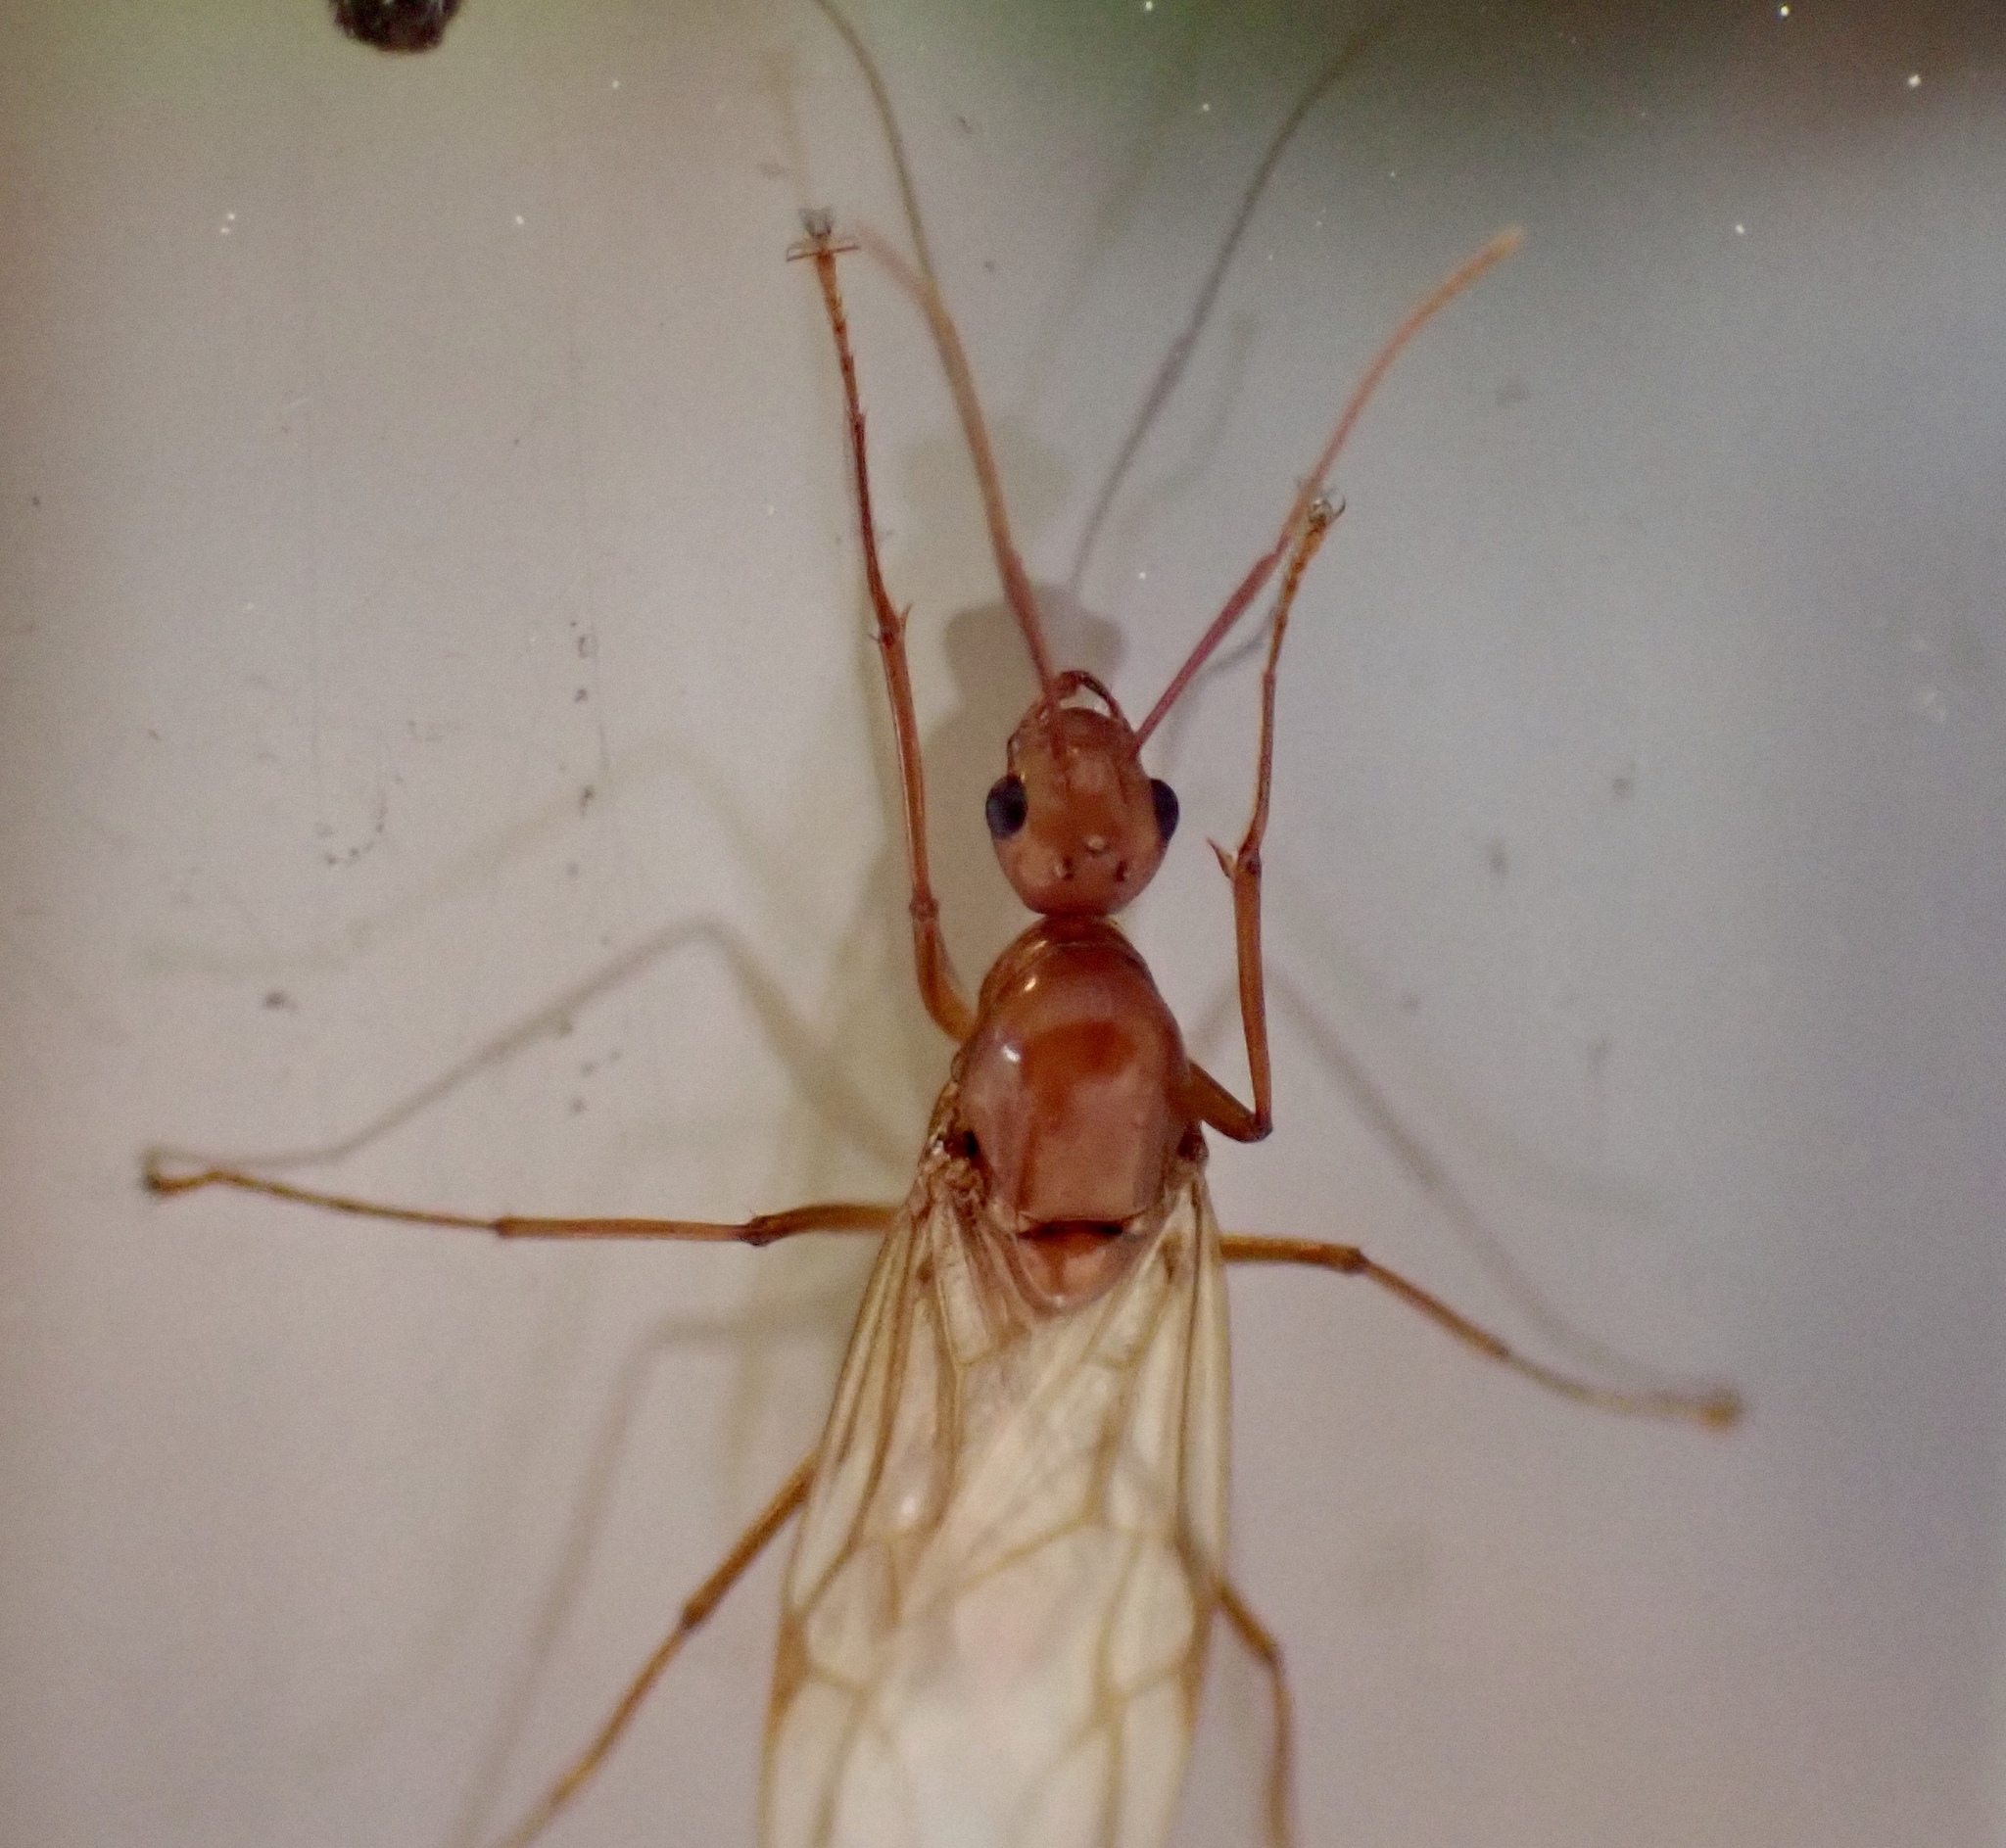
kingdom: Animalia
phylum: Arthropoda
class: Insecta
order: Hymenoptera
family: Formicidae
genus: Camponotus
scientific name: Camponotus castaneus
